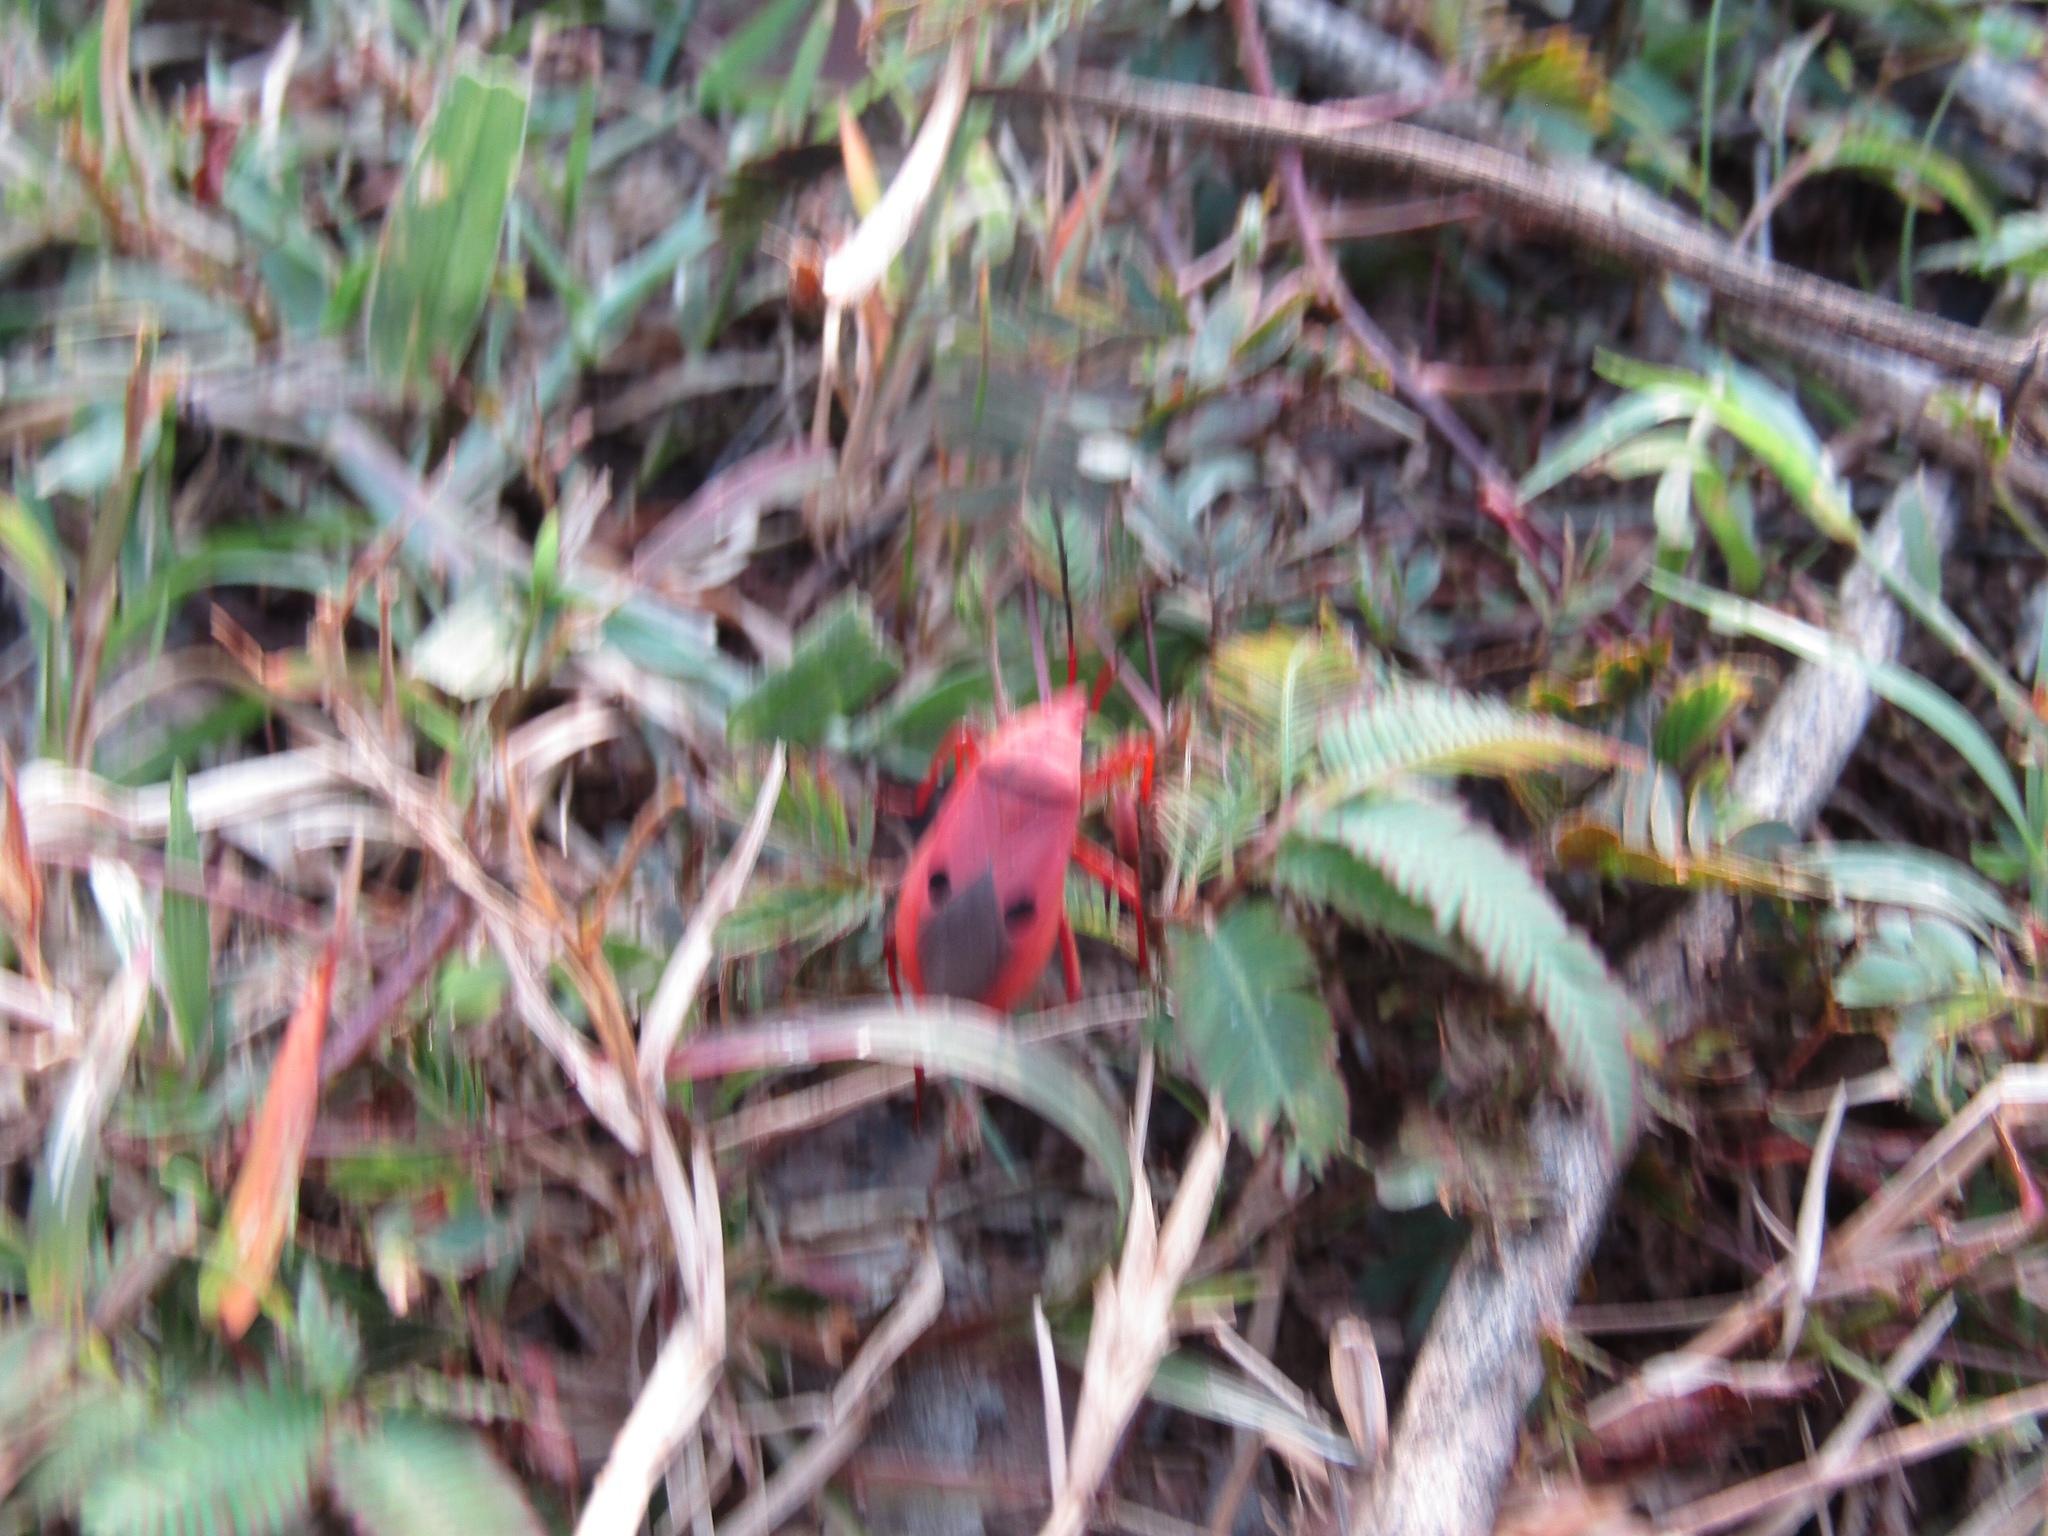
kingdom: Animalia
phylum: Arthropoda
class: Insecta
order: Hemiptera
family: Pyrrhocoridae
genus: Probergrothius
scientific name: Probergrothius nigricornis
